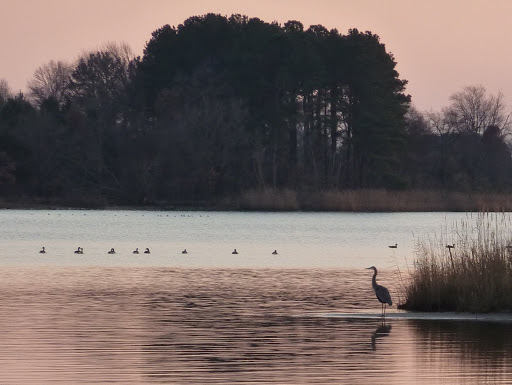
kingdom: Animalia
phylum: Chordata
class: Aves
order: Pelecaniformes
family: Ardeidae
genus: Ardea
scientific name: Ardea herodias
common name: Great blue heron
